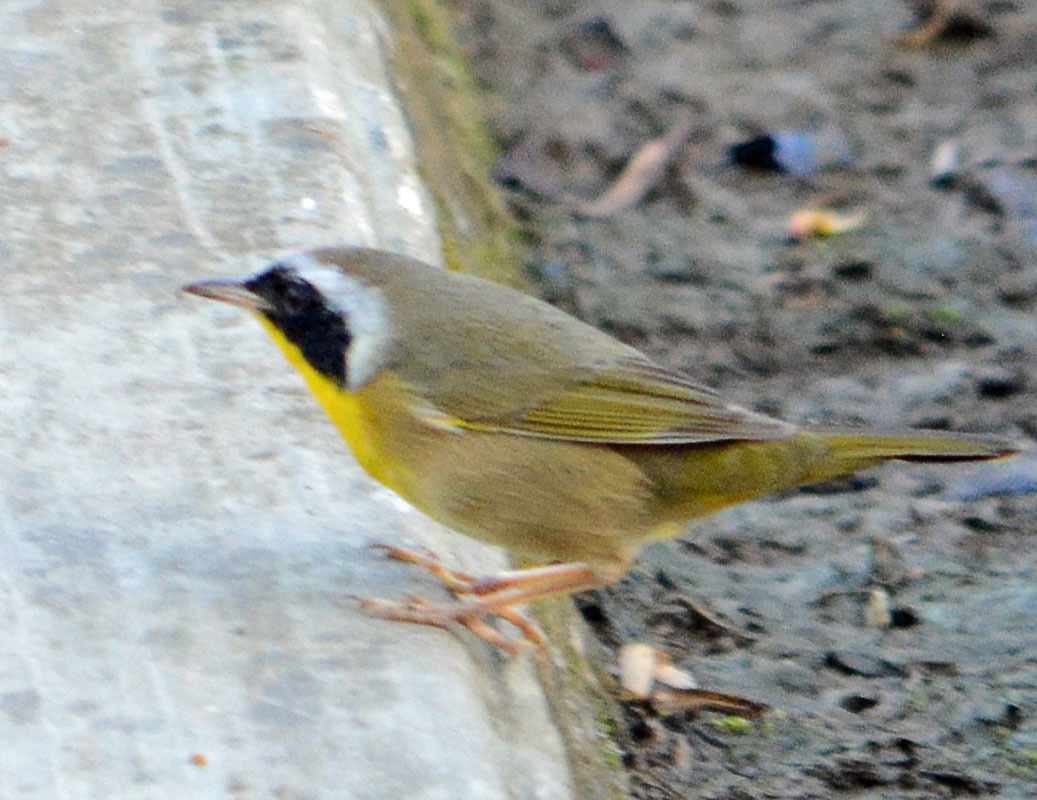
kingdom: Animalia
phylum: Chordata
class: Aves
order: Passeriformes
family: Parulidae
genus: Geothlypis
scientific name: Geothlypis trichas
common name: Common yellowthroat
